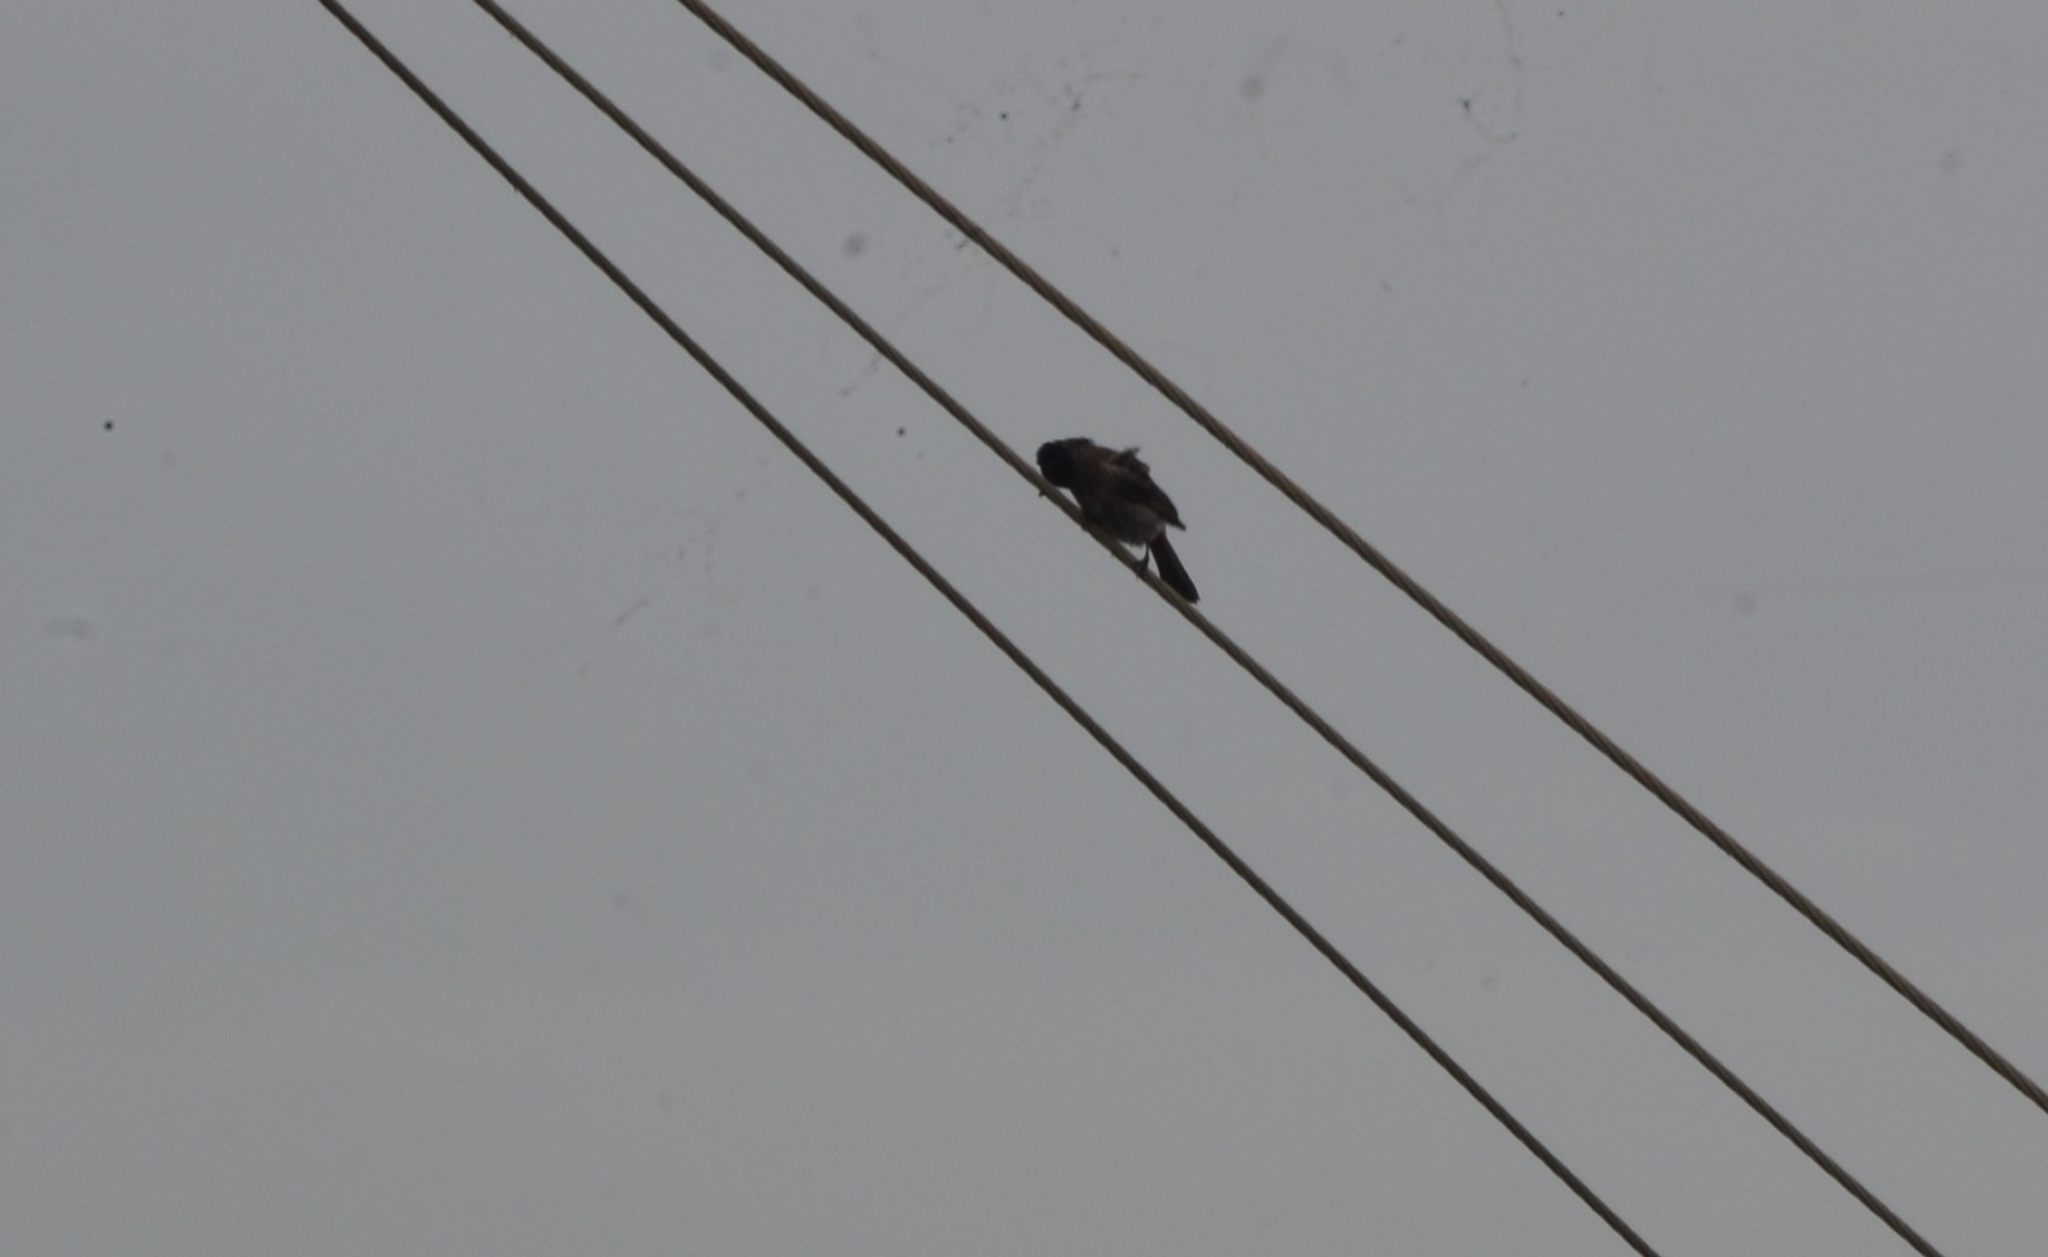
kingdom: Animalia
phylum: Chordata
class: Aves
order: Passeriformes
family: Pycnonotidae
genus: Pycnonotus
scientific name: Pycnonotus cafer
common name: Red-vented bulbul
